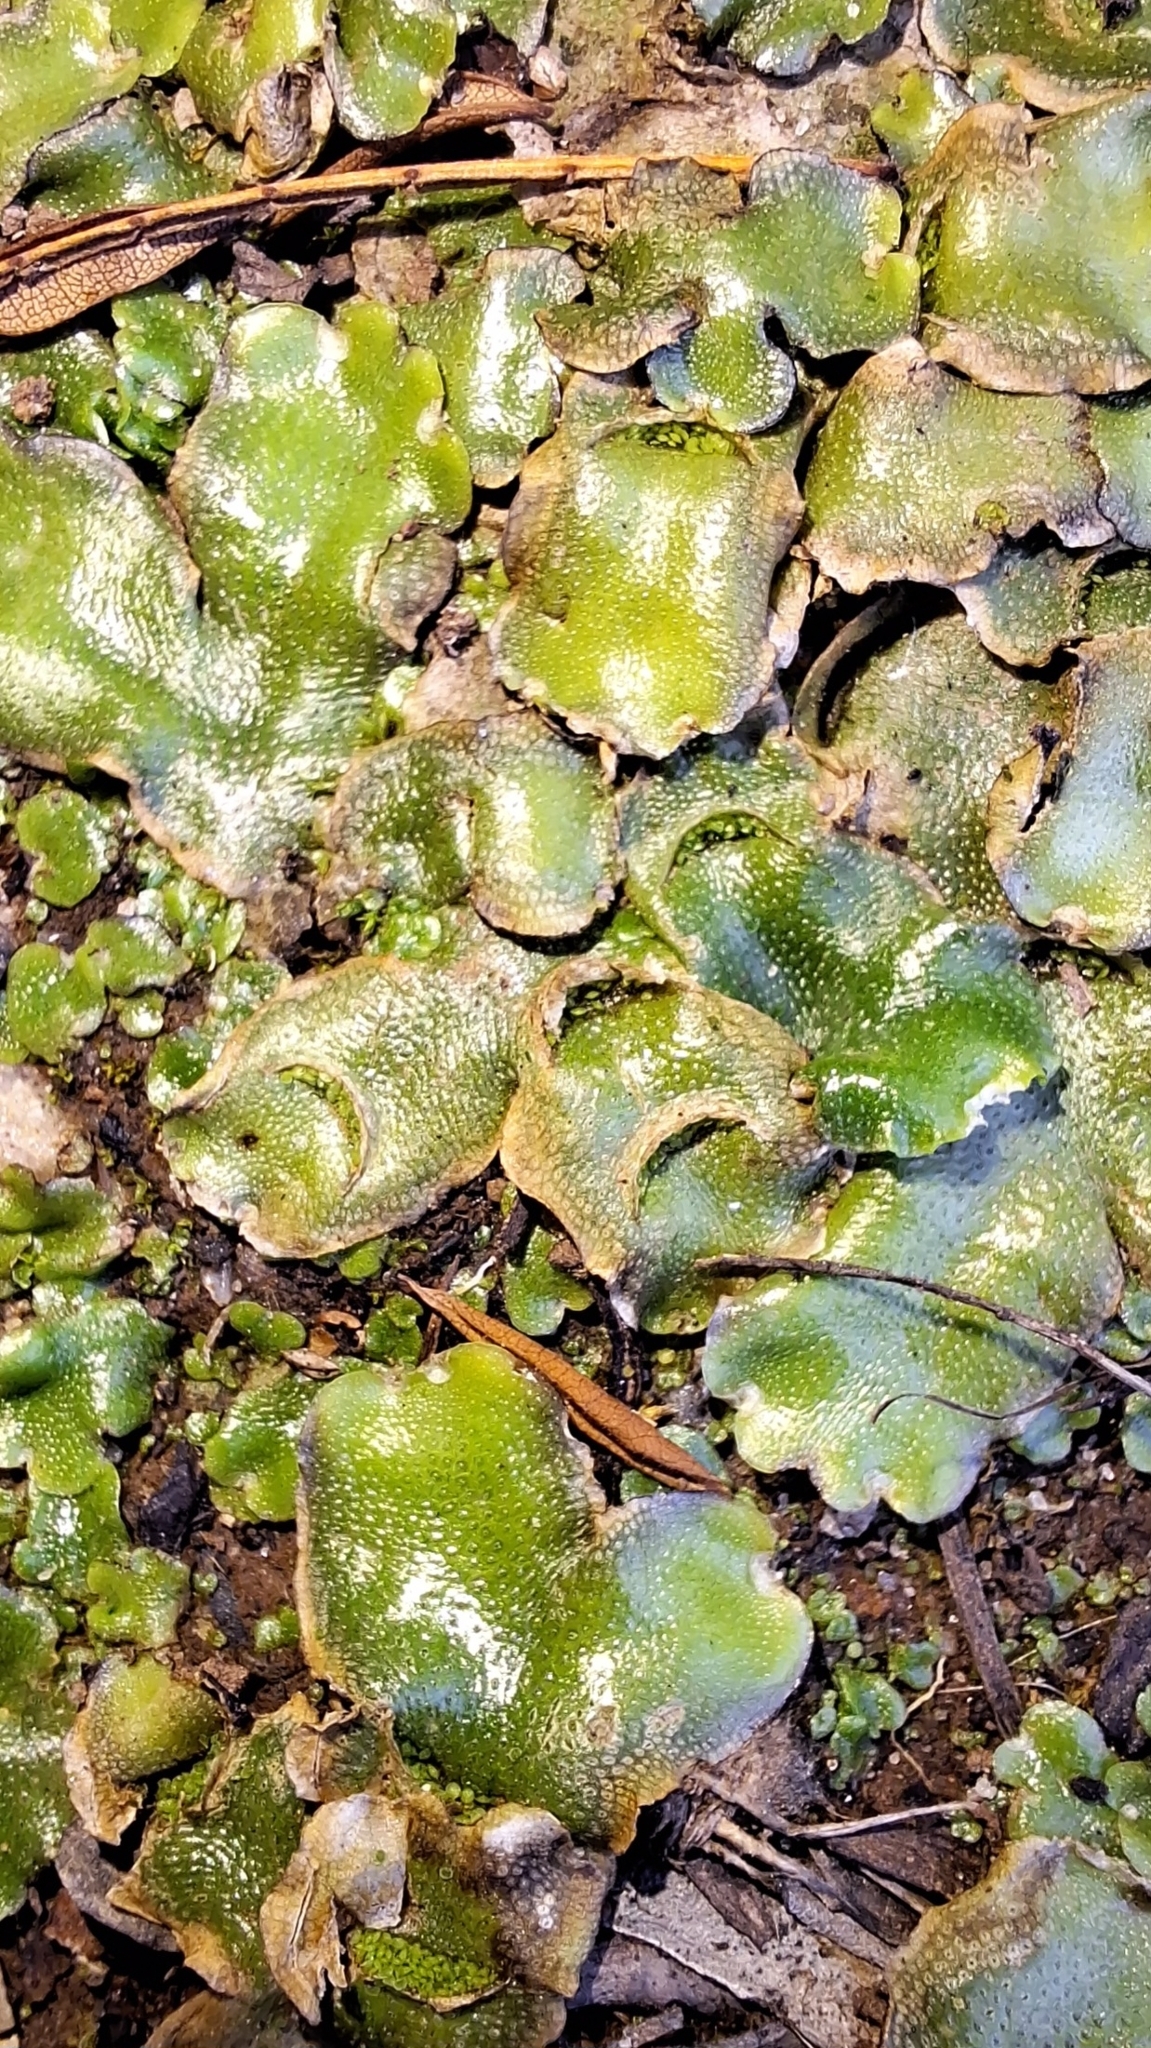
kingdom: Plantae
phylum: Marchantiophyta
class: Marchantiopsida
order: Lunulariales
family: Lunulariaceae
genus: Lunularia
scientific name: Lunularia cruciata
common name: Crescent-cup liverwort
